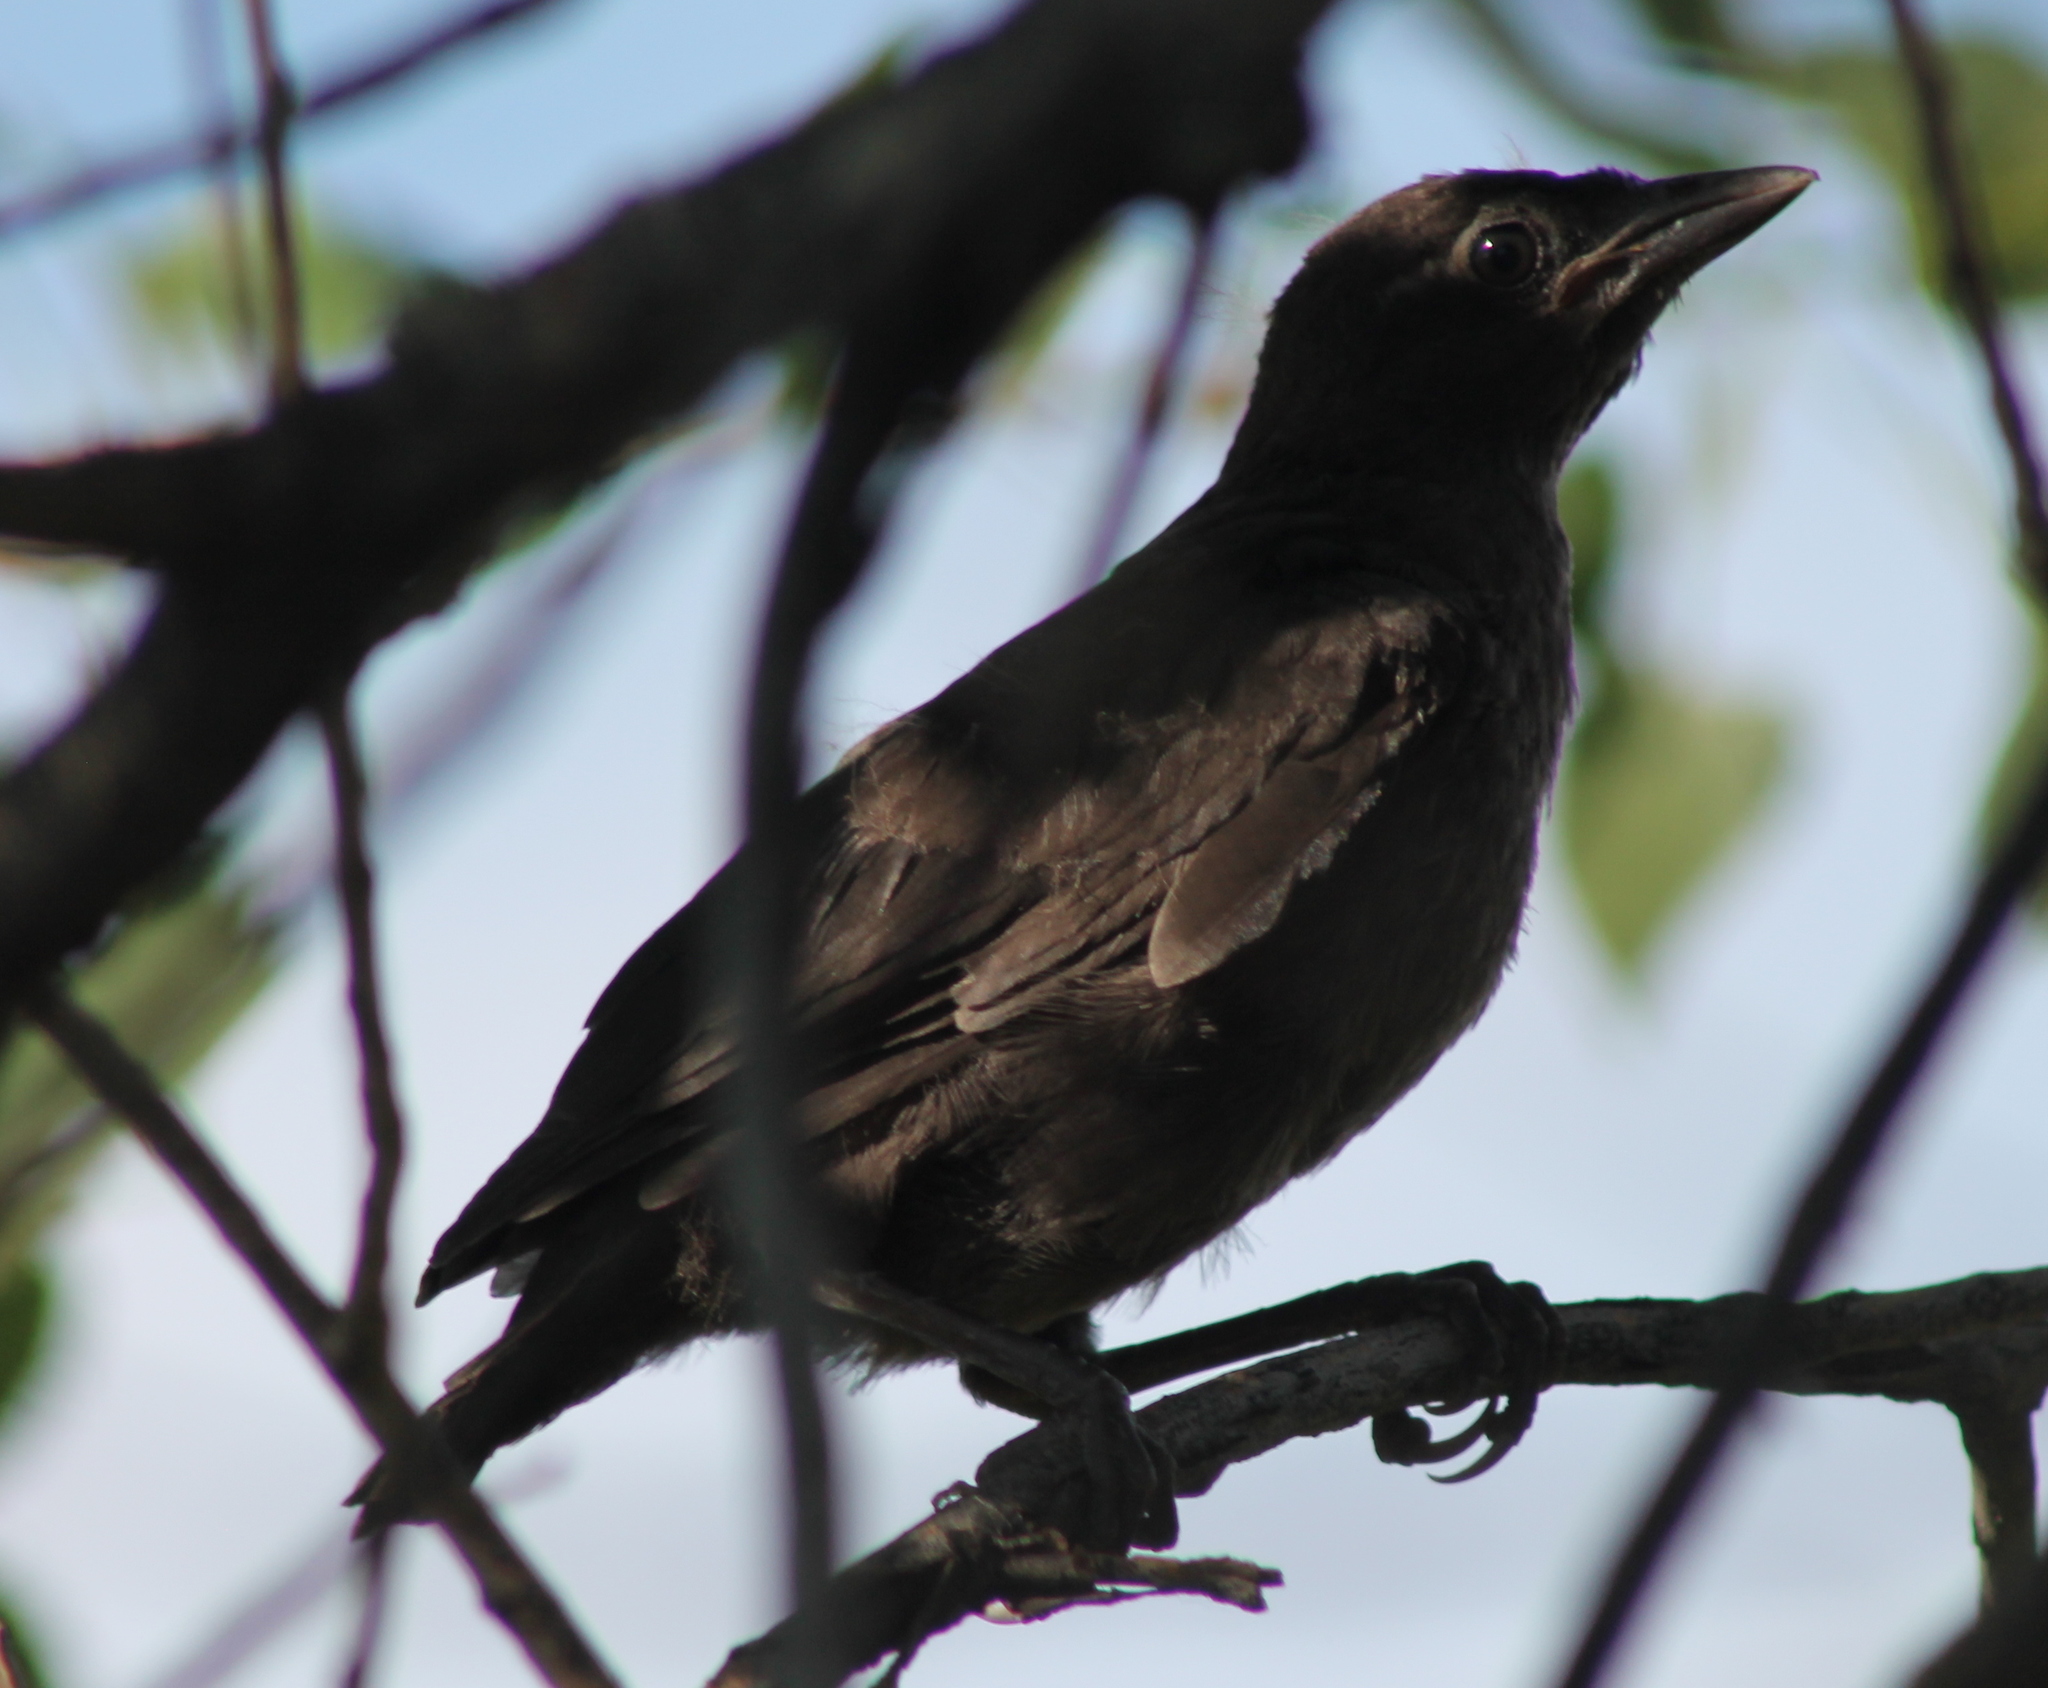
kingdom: Animalia
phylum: Chordata
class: Aves
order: Passeriformes
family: Icteridae
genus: Quiscalus
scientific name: Quiscalus quiscula
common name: Common grackle
